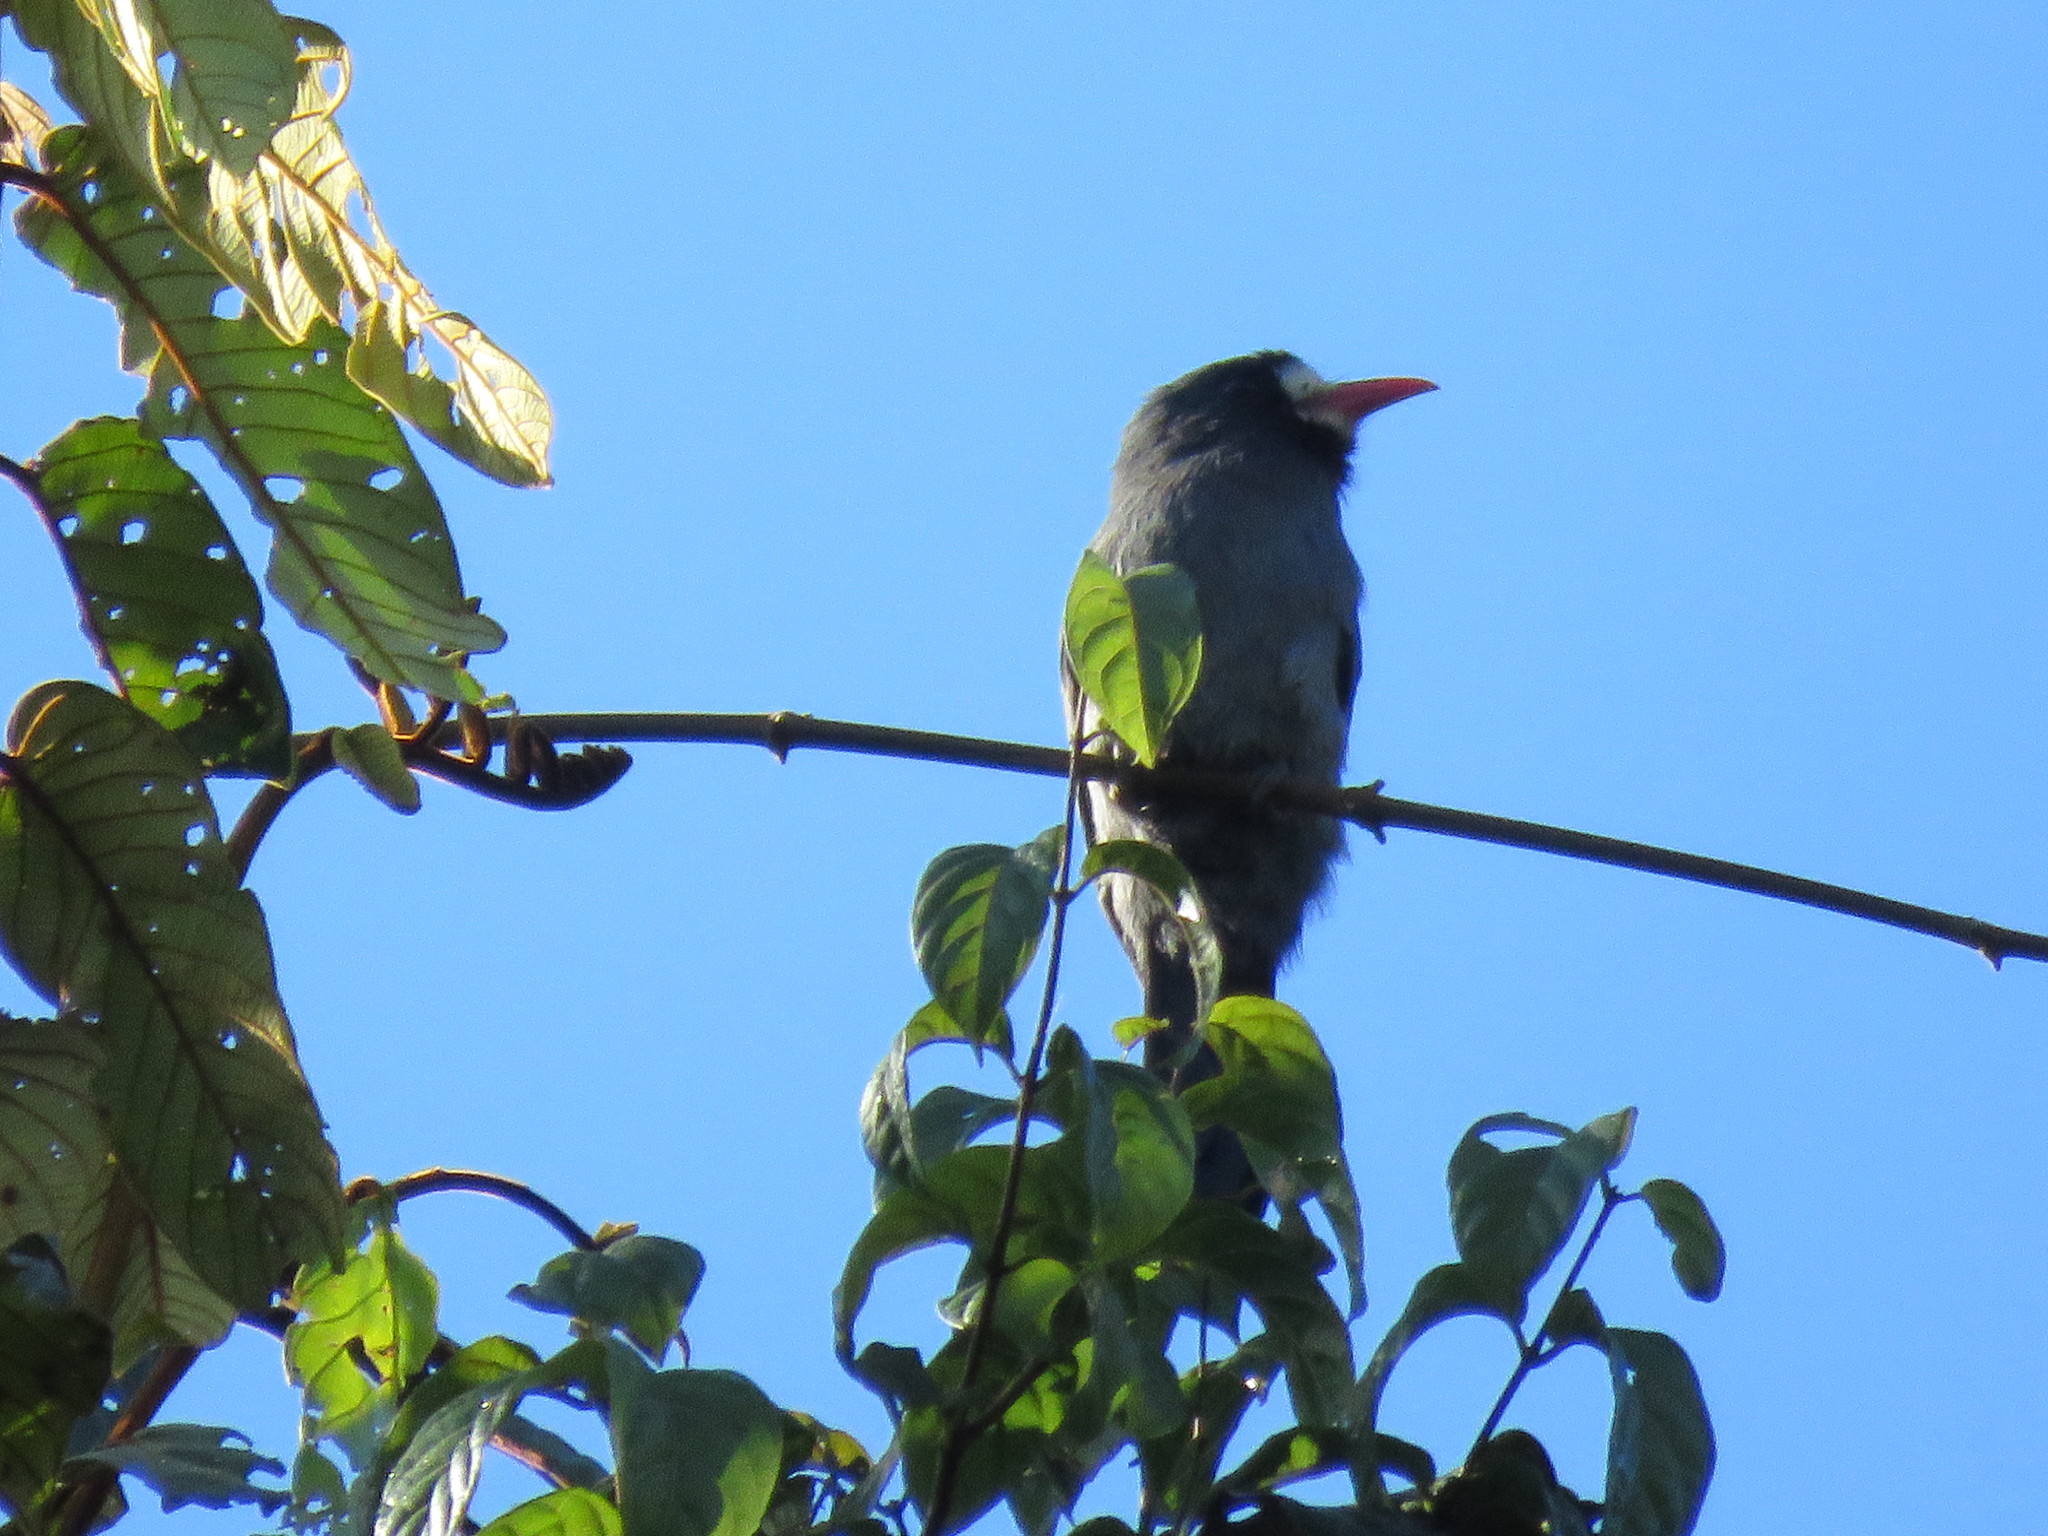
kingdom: Animalia
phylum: Chordata
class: Aves
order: Piciformes
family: Bucconidae
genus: Monasa
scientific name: Monasa morphoeus
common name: White-fronted nunbird
